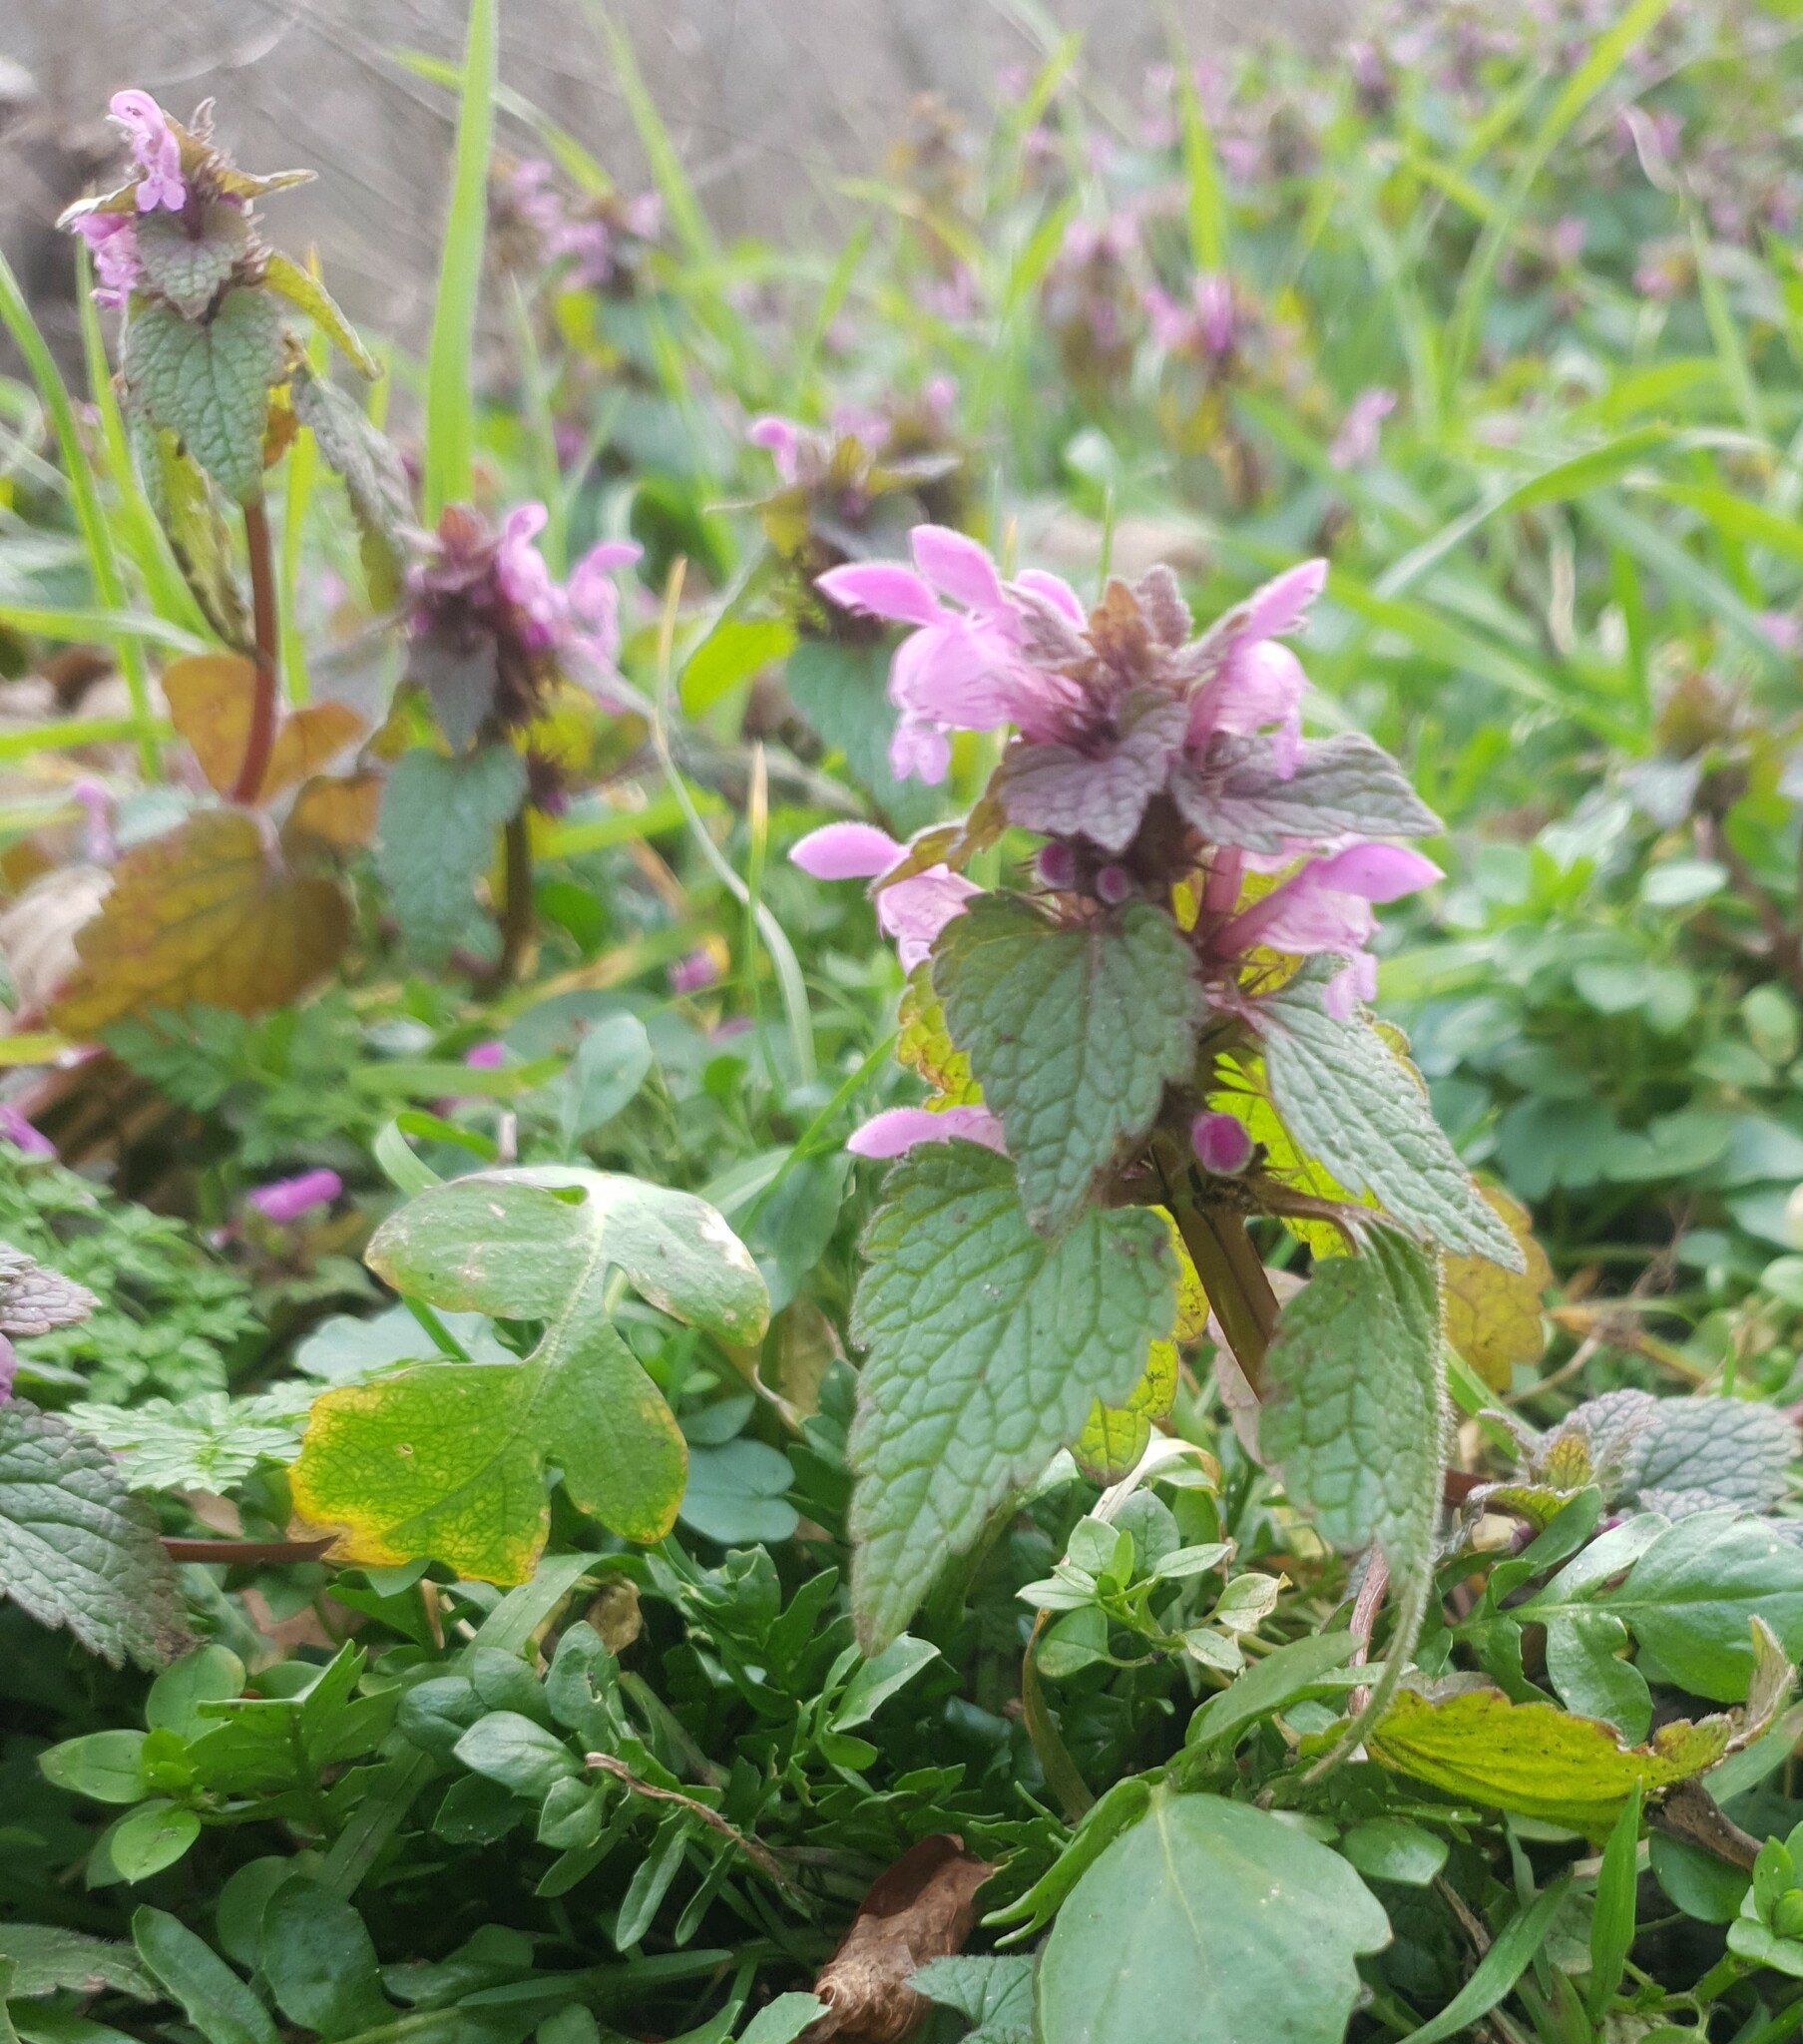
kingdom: Plantae
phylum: Tracheophyta
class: Magnoliopsida
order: Lamiales
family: Lamiaceae
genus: Lamium
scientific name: Lamium purpureum
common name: Red dead-nettle
